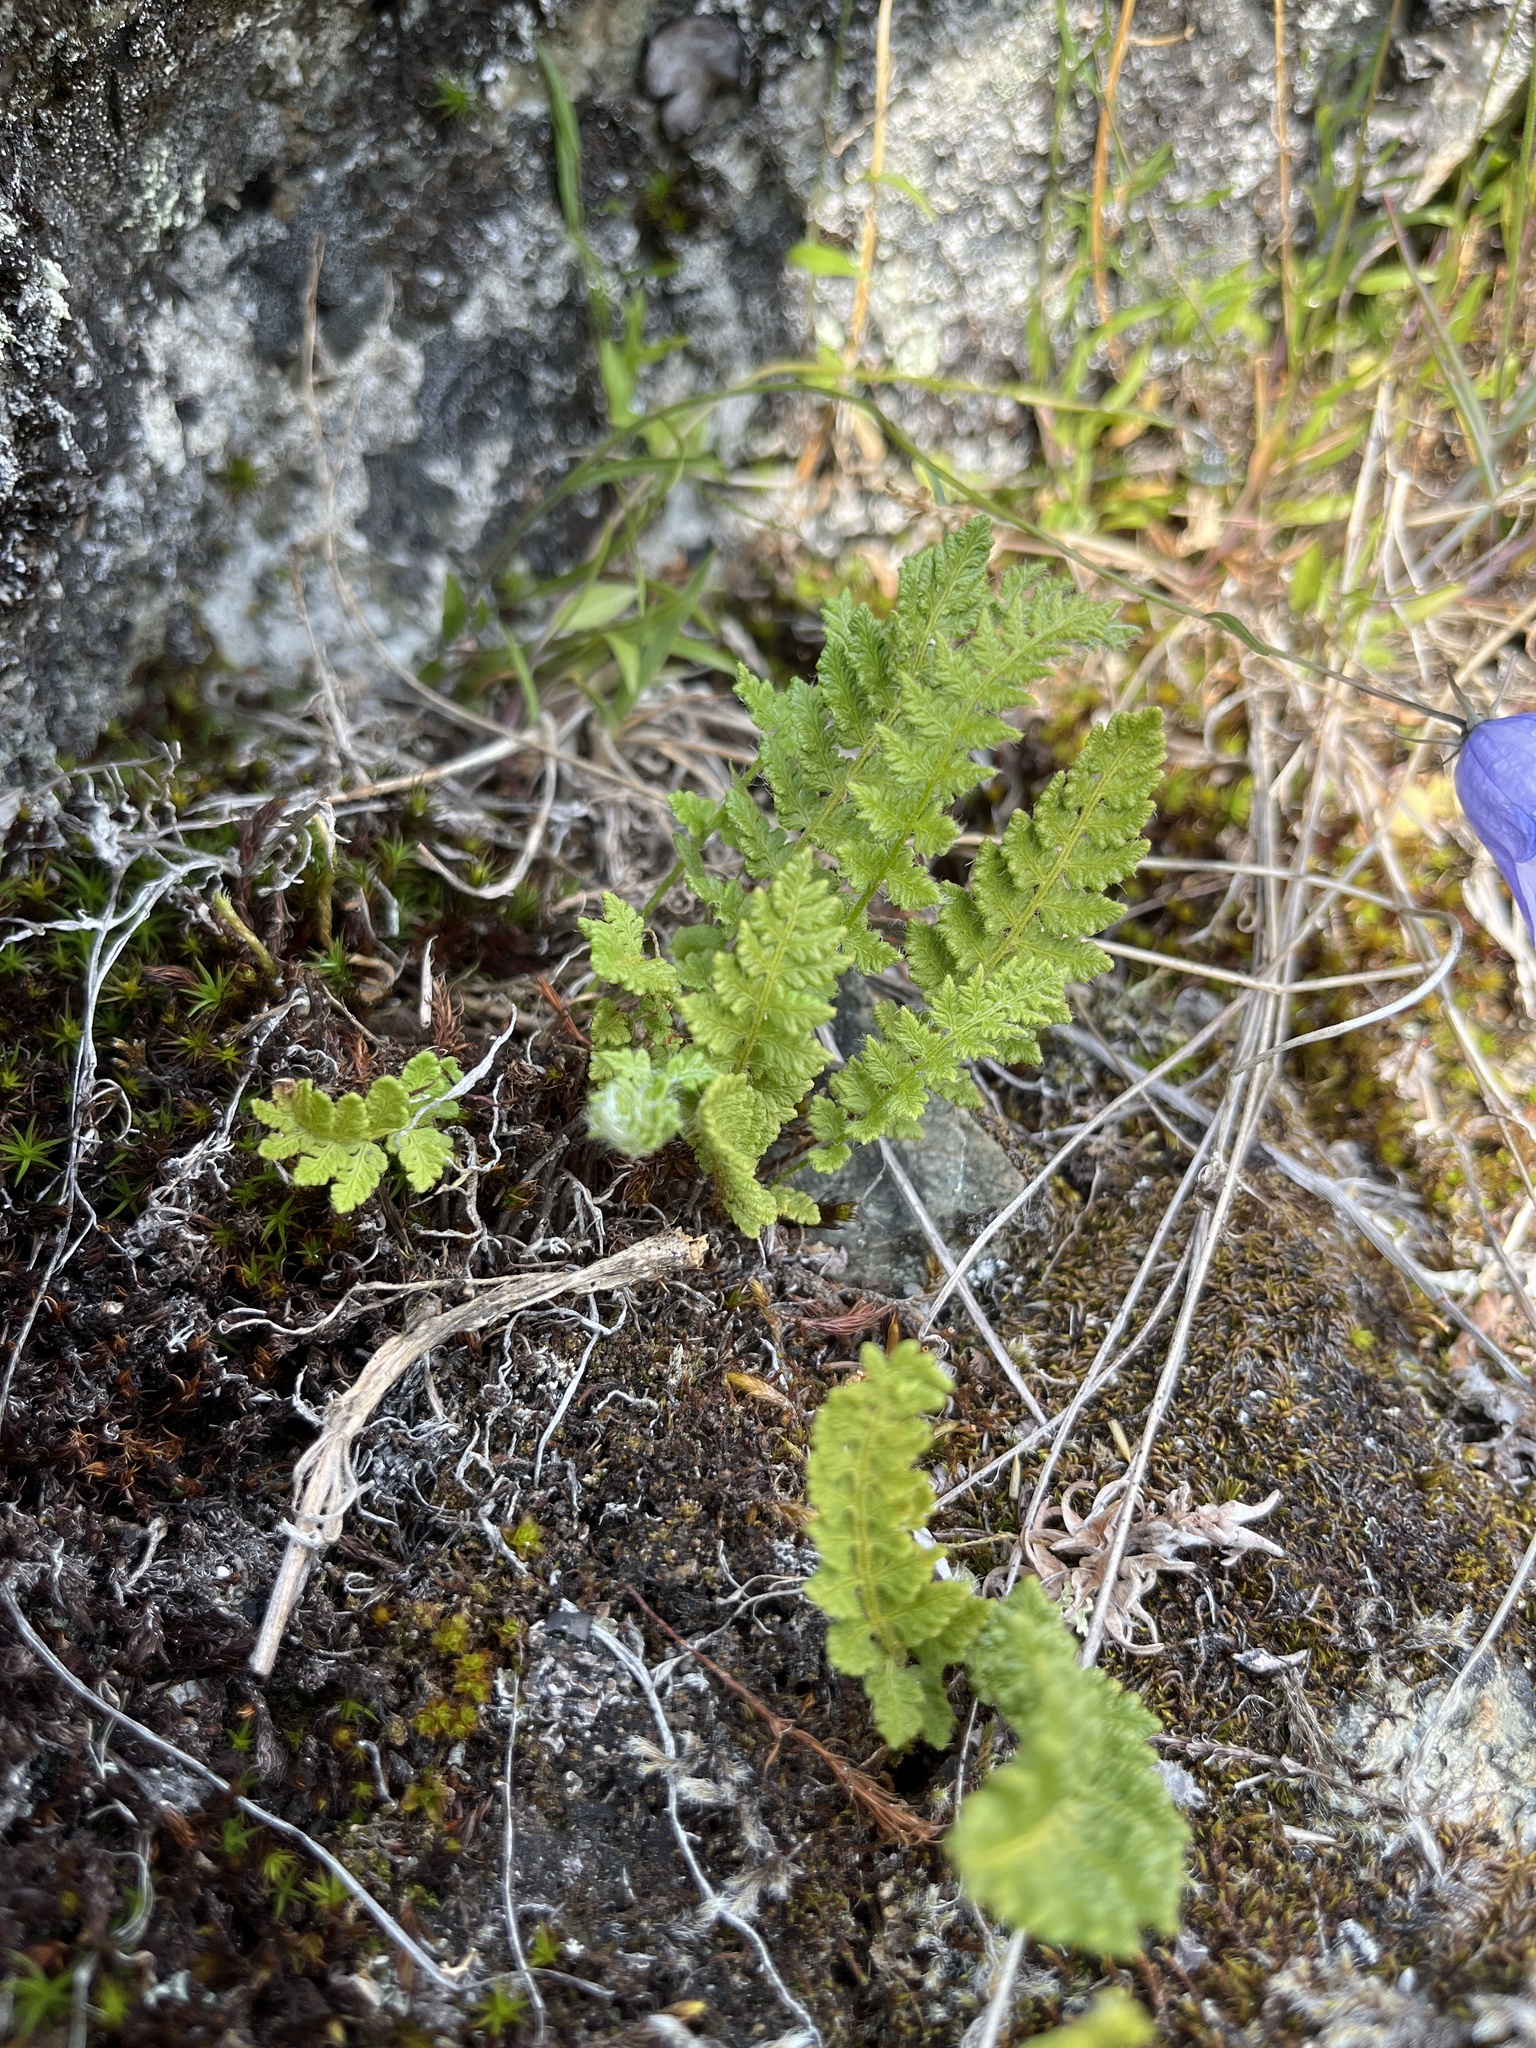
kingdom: Plantae
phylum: Tracheophyta
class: Polypodiopsida
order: Polypodiales
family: Woodsiaceae
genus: Woodsia
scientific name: Woodsia ilvensis
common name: Fragrant woodsia
